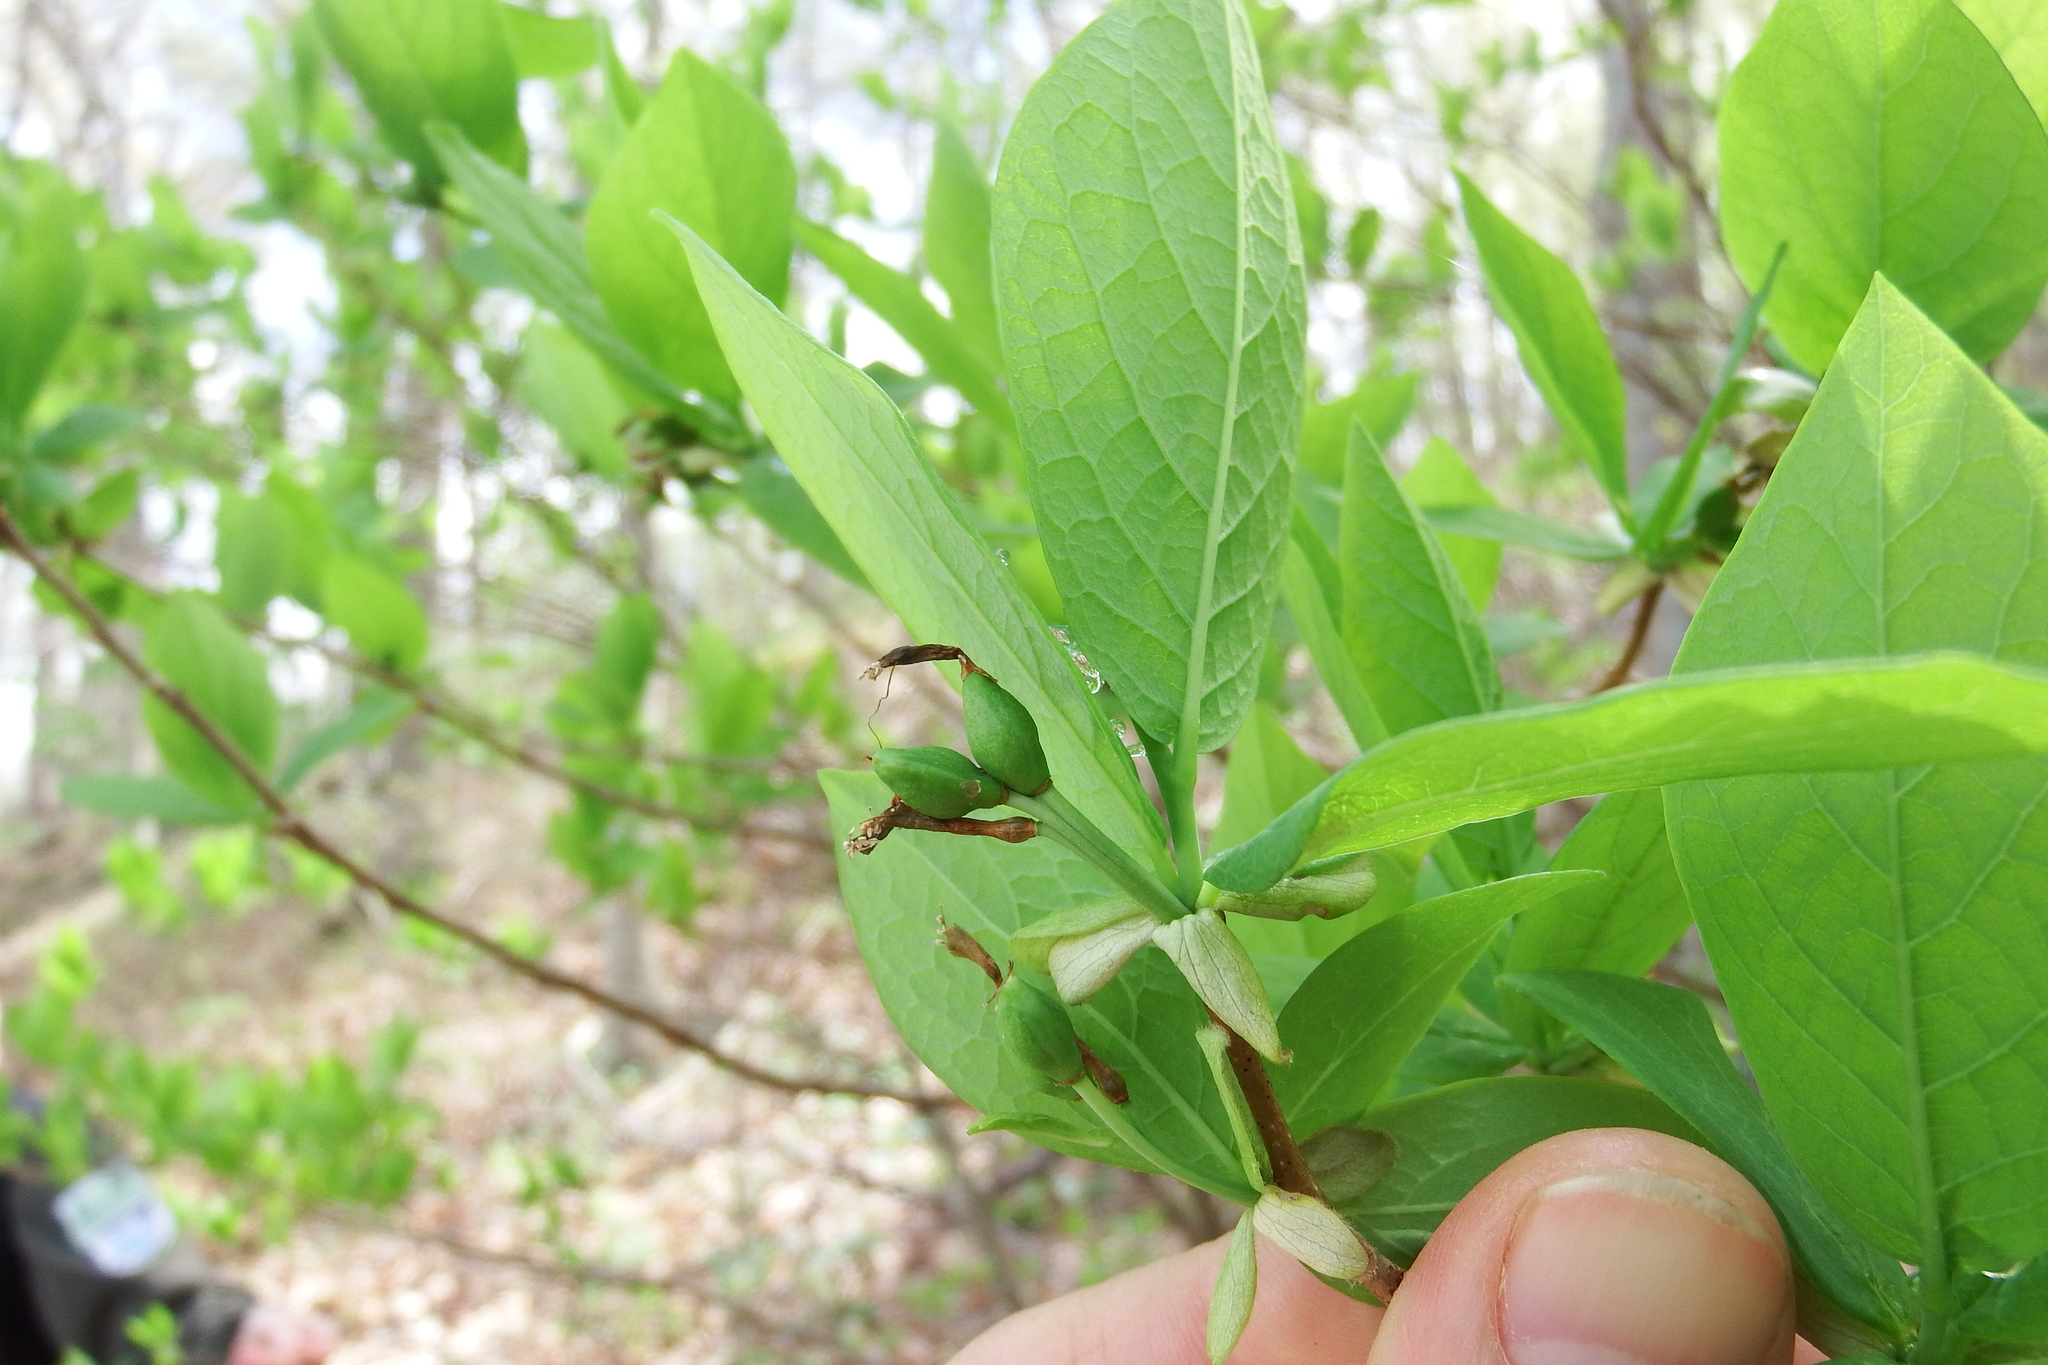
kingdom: Plantae
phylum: Tracheophyta
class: Magnoliopsida
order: Malvales
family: Thymelaeaceae
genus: Dirca
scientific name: Dirca palustris
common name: Leatherwood
